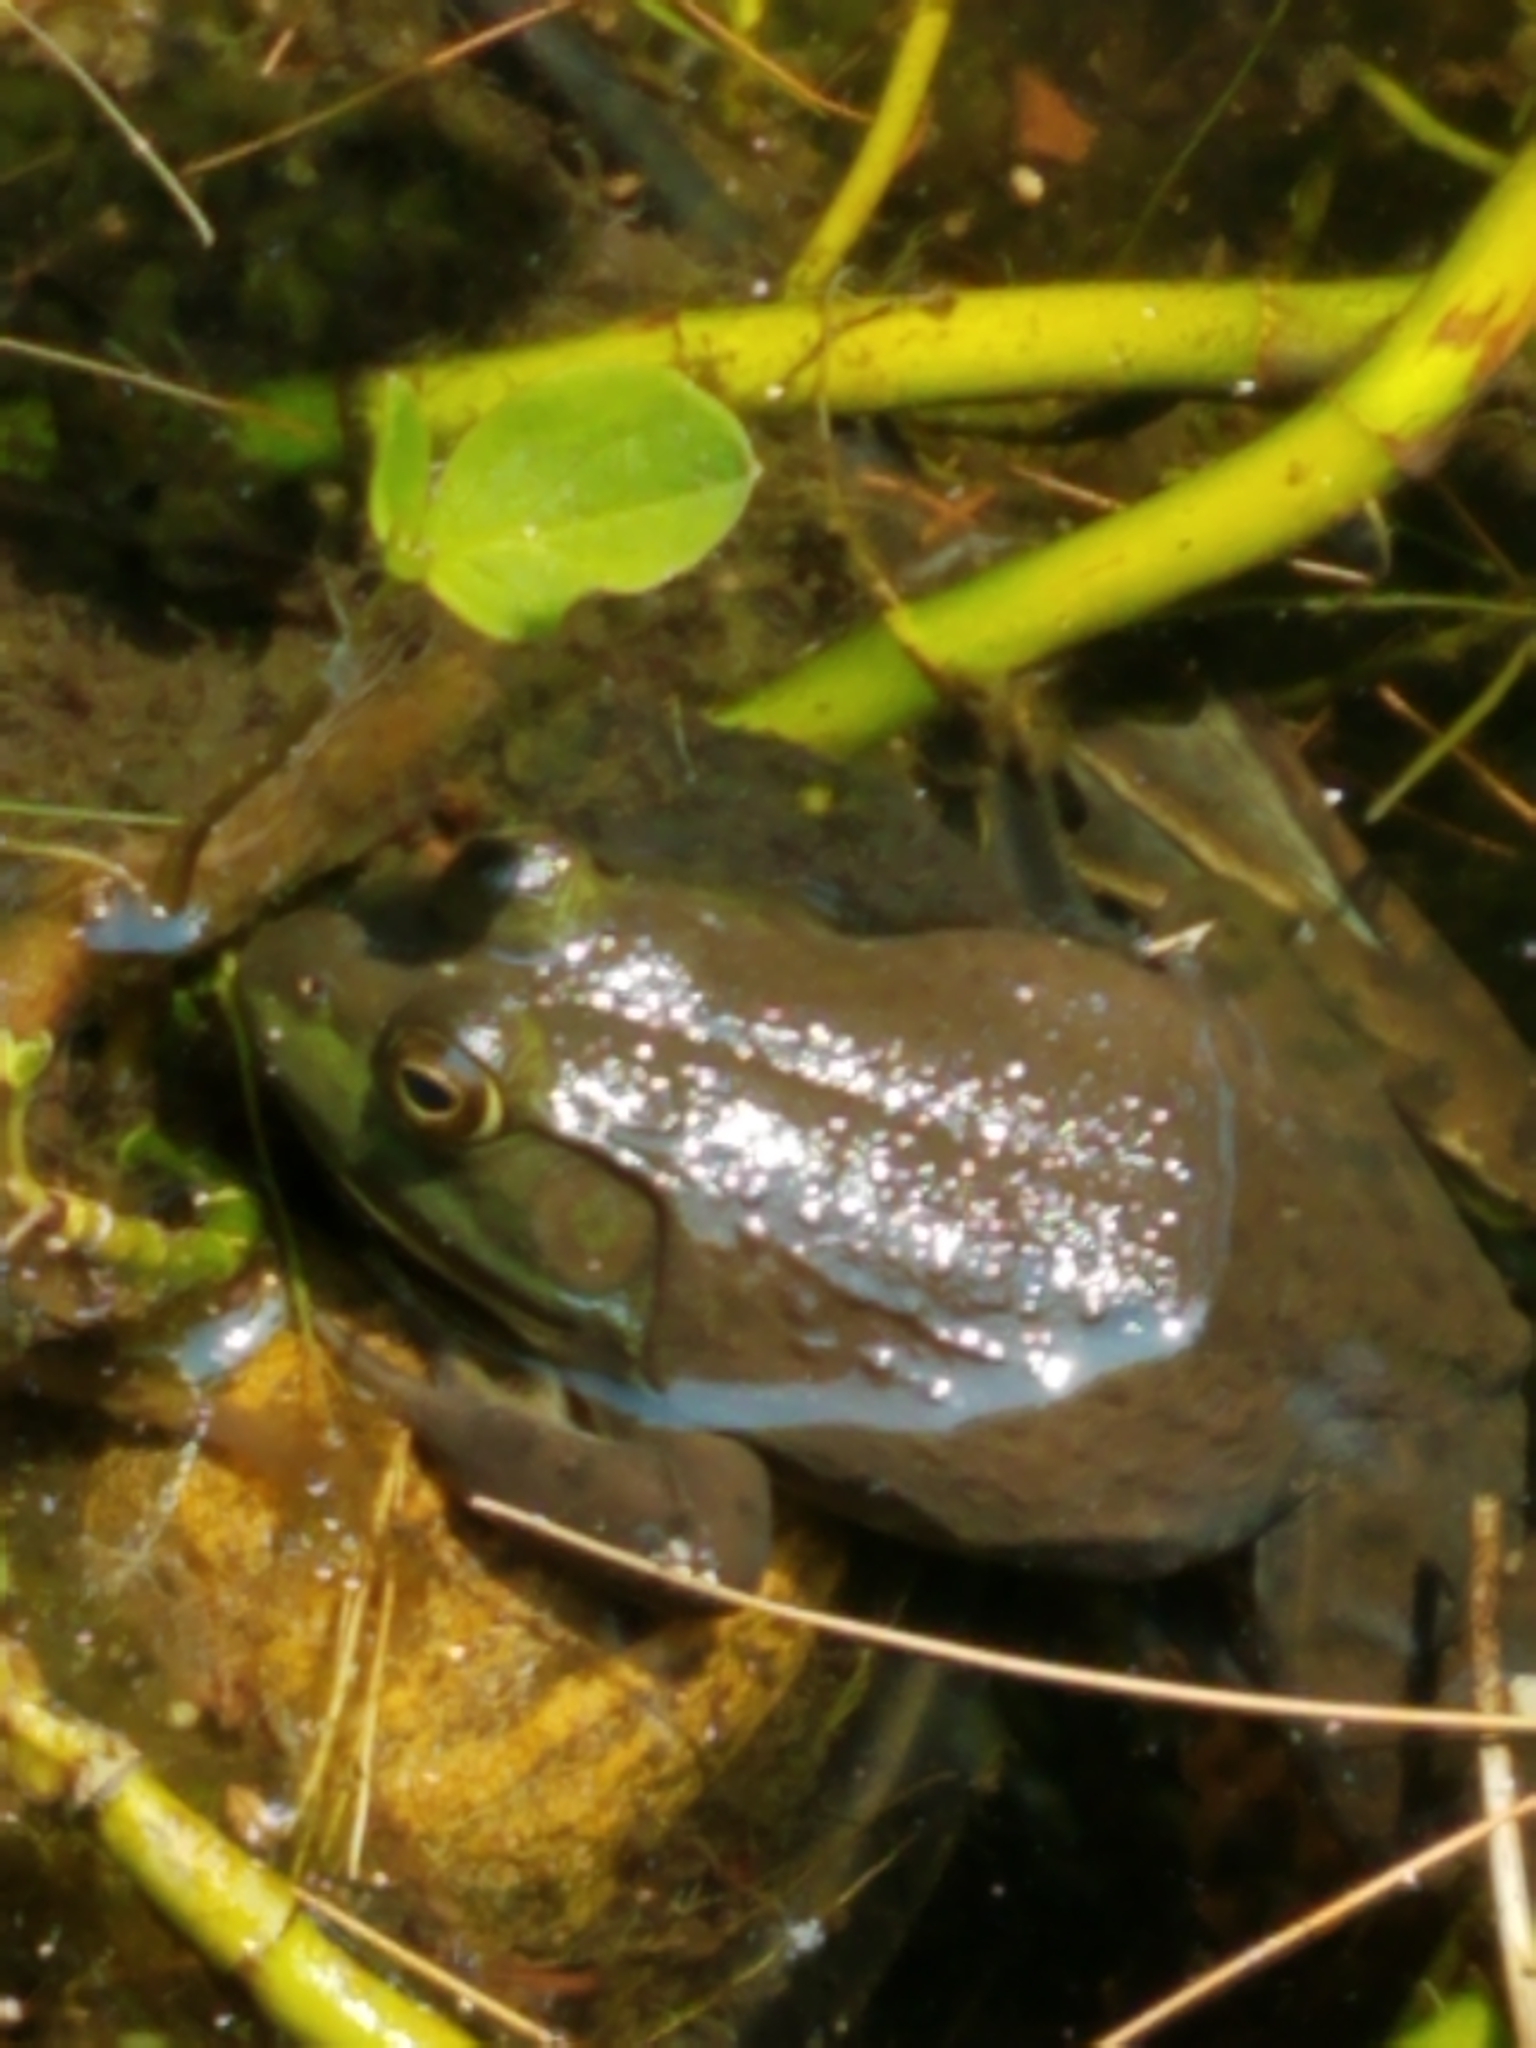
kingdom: Animalia
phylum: Chordata
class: Amphibia
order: Anura
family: Ranidae
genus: Lithobates
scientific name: Lithobates catesbeianus
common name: American bullfrog
